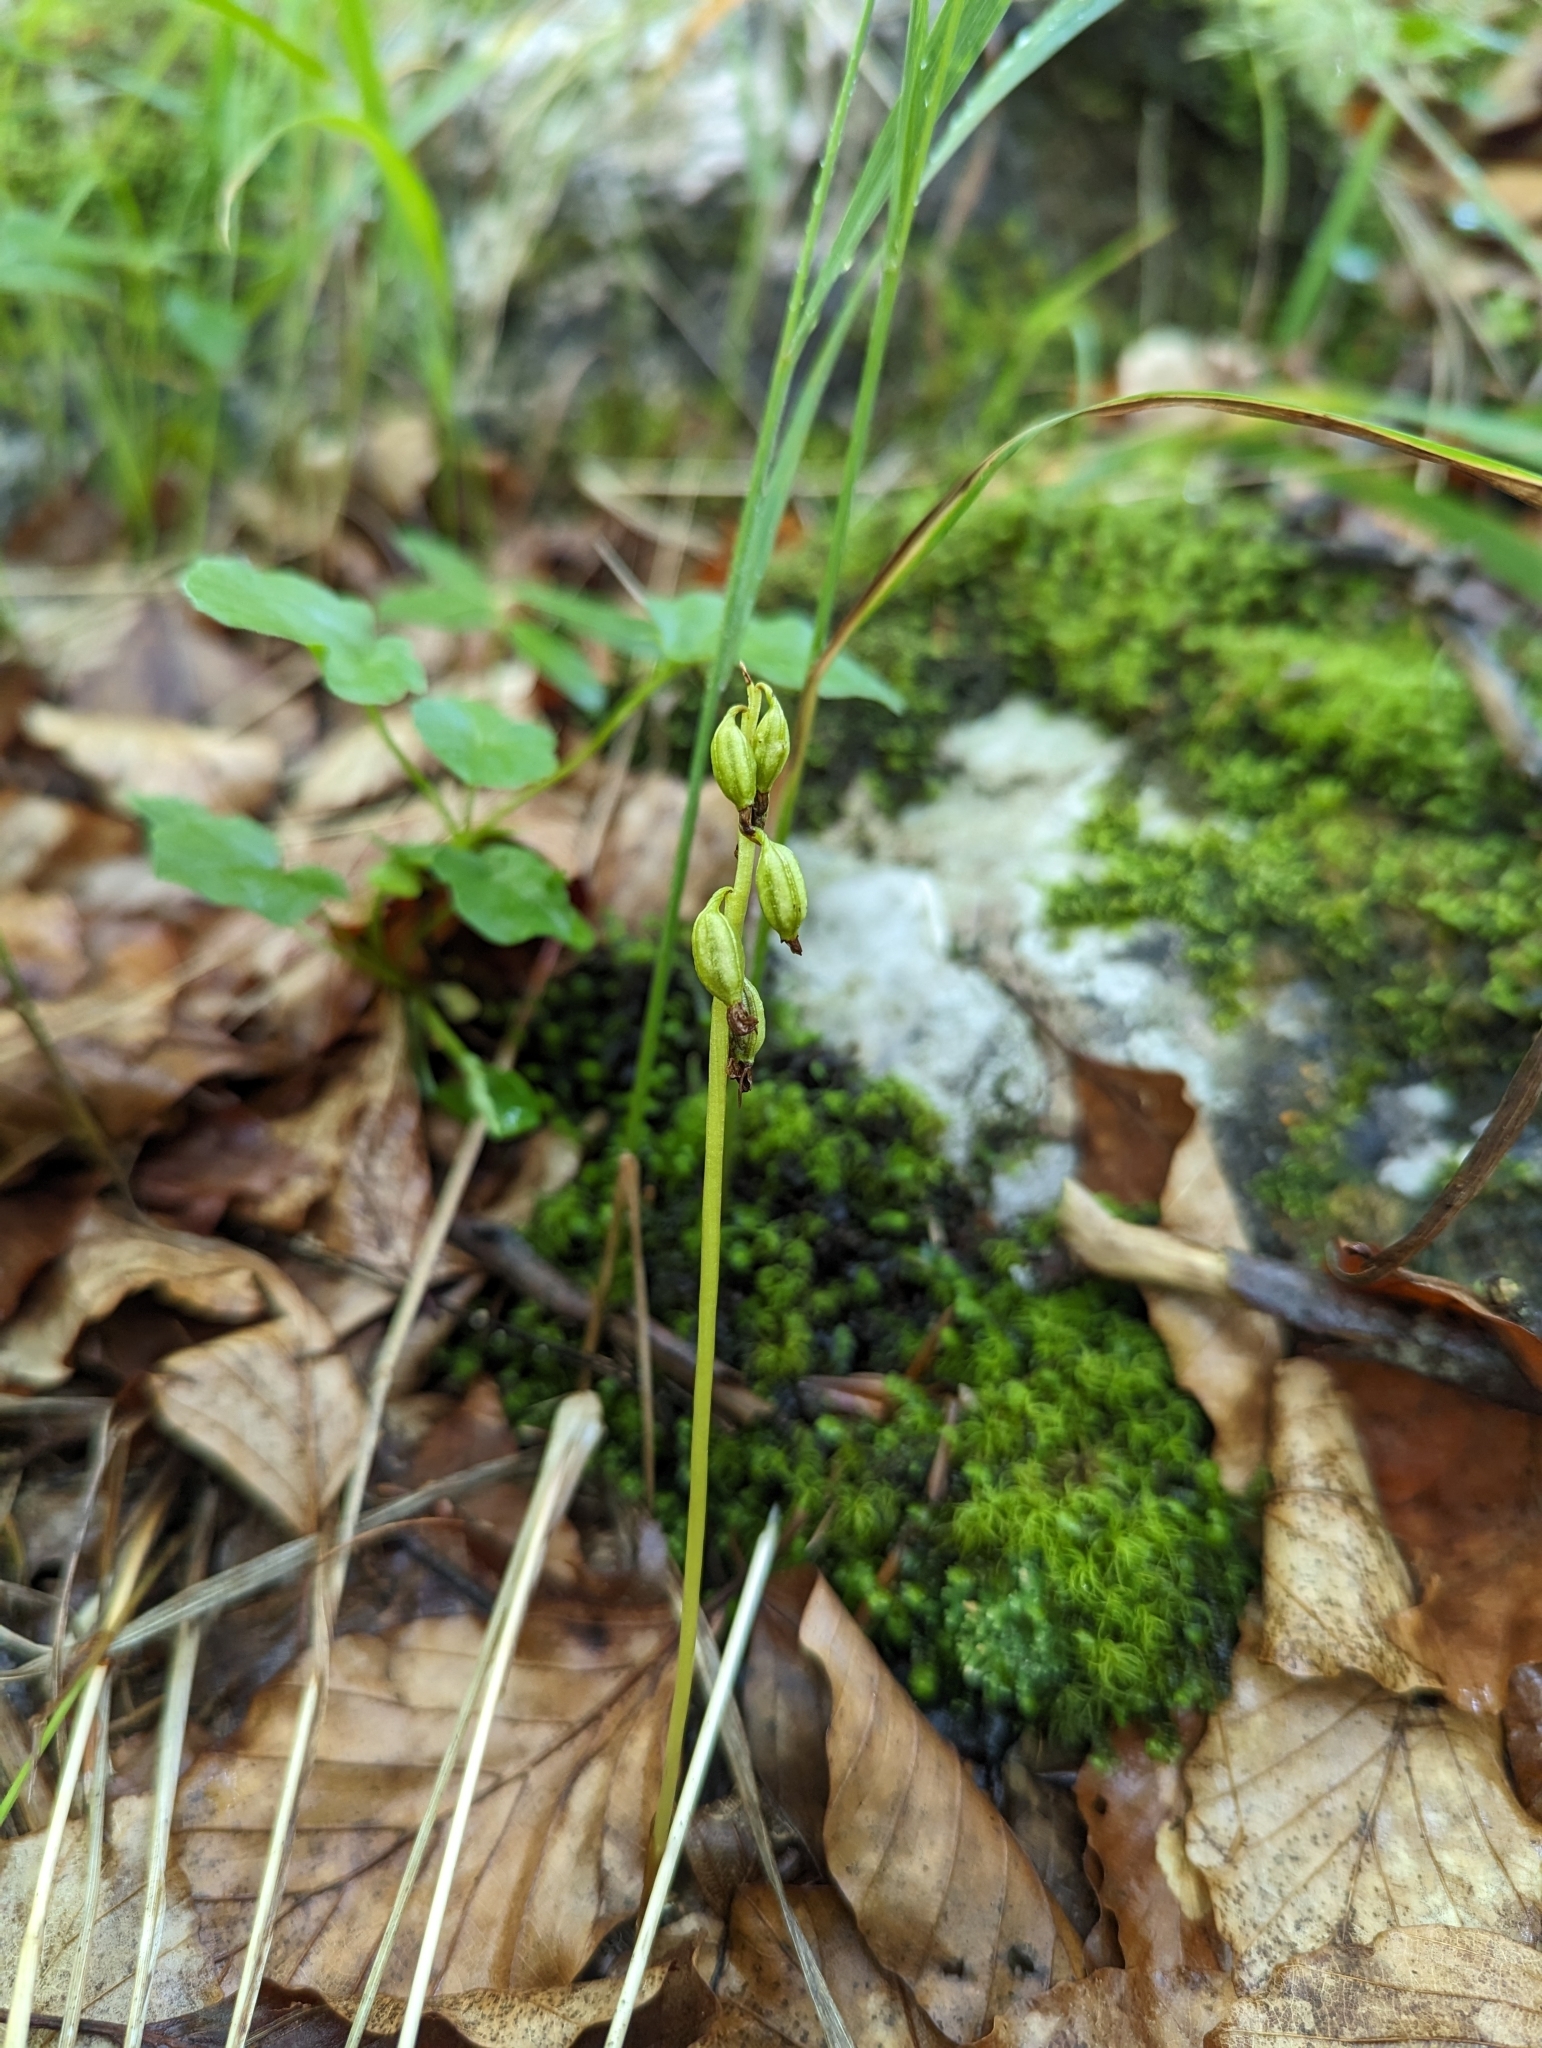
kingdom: Plantae
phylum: Tracheophyta
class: Liliopsida
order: Asparagales
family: Orchidaceae
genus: Corallorhiza
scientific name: Corallorhiza trifida
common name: Yellow coralroot
